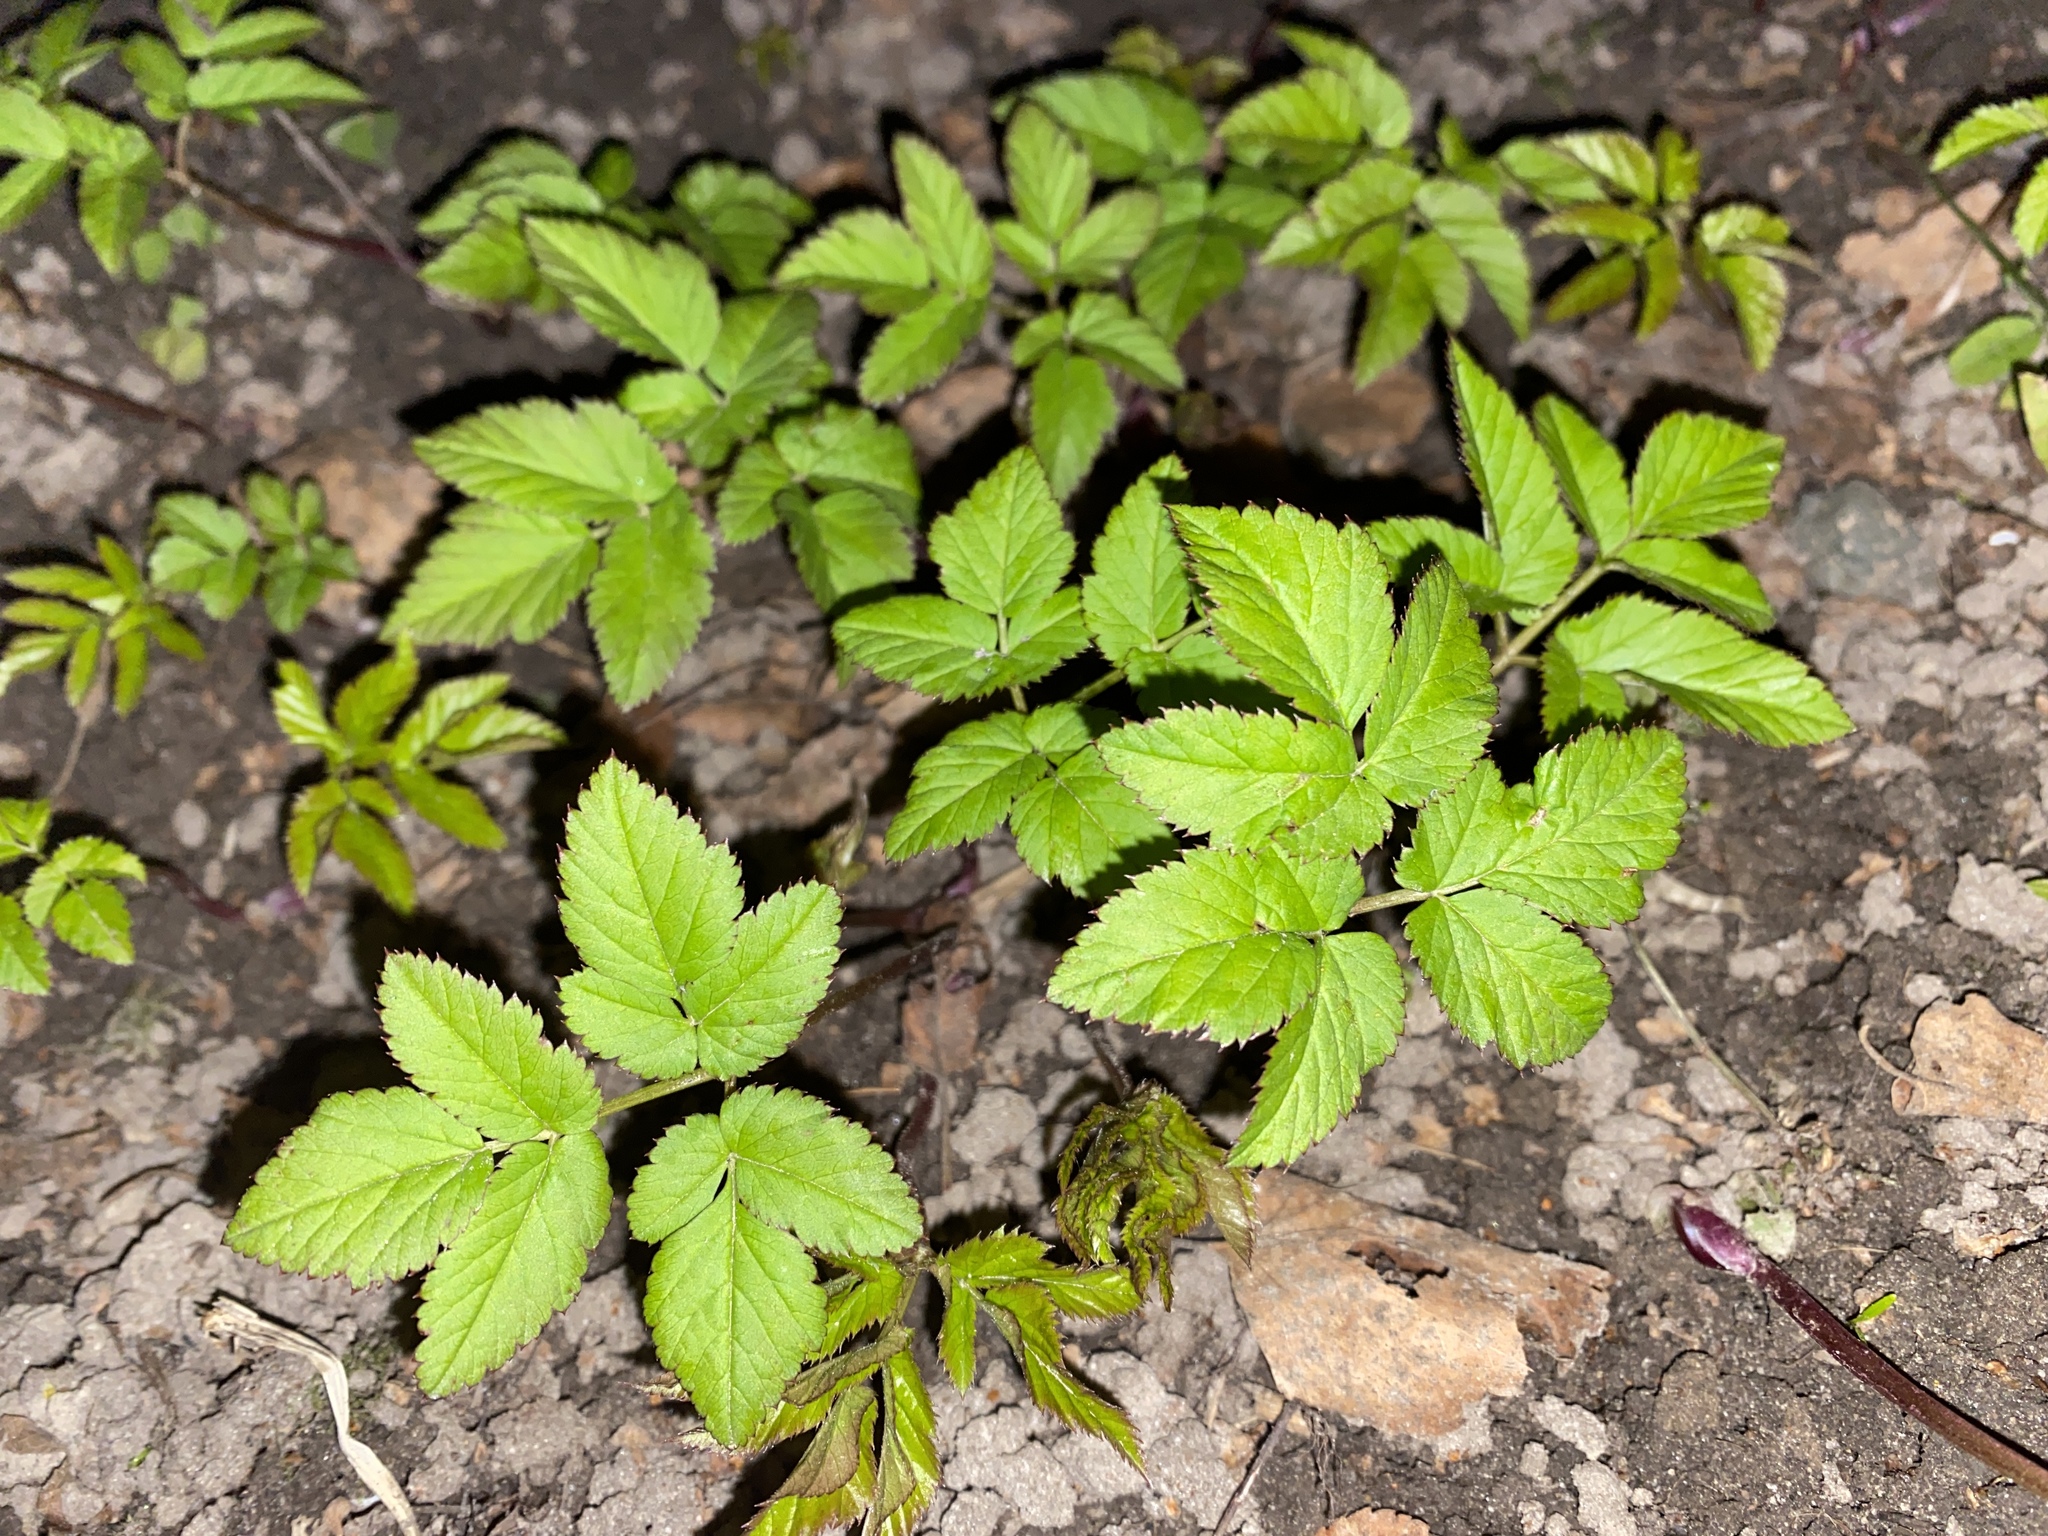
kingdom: Plantae
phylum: Tracheophyta
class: Magnoliopsida
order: Apiales
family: Apiaceae
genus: Aegopodium
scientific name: Aegopodium podagraria
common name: Ground-elder
